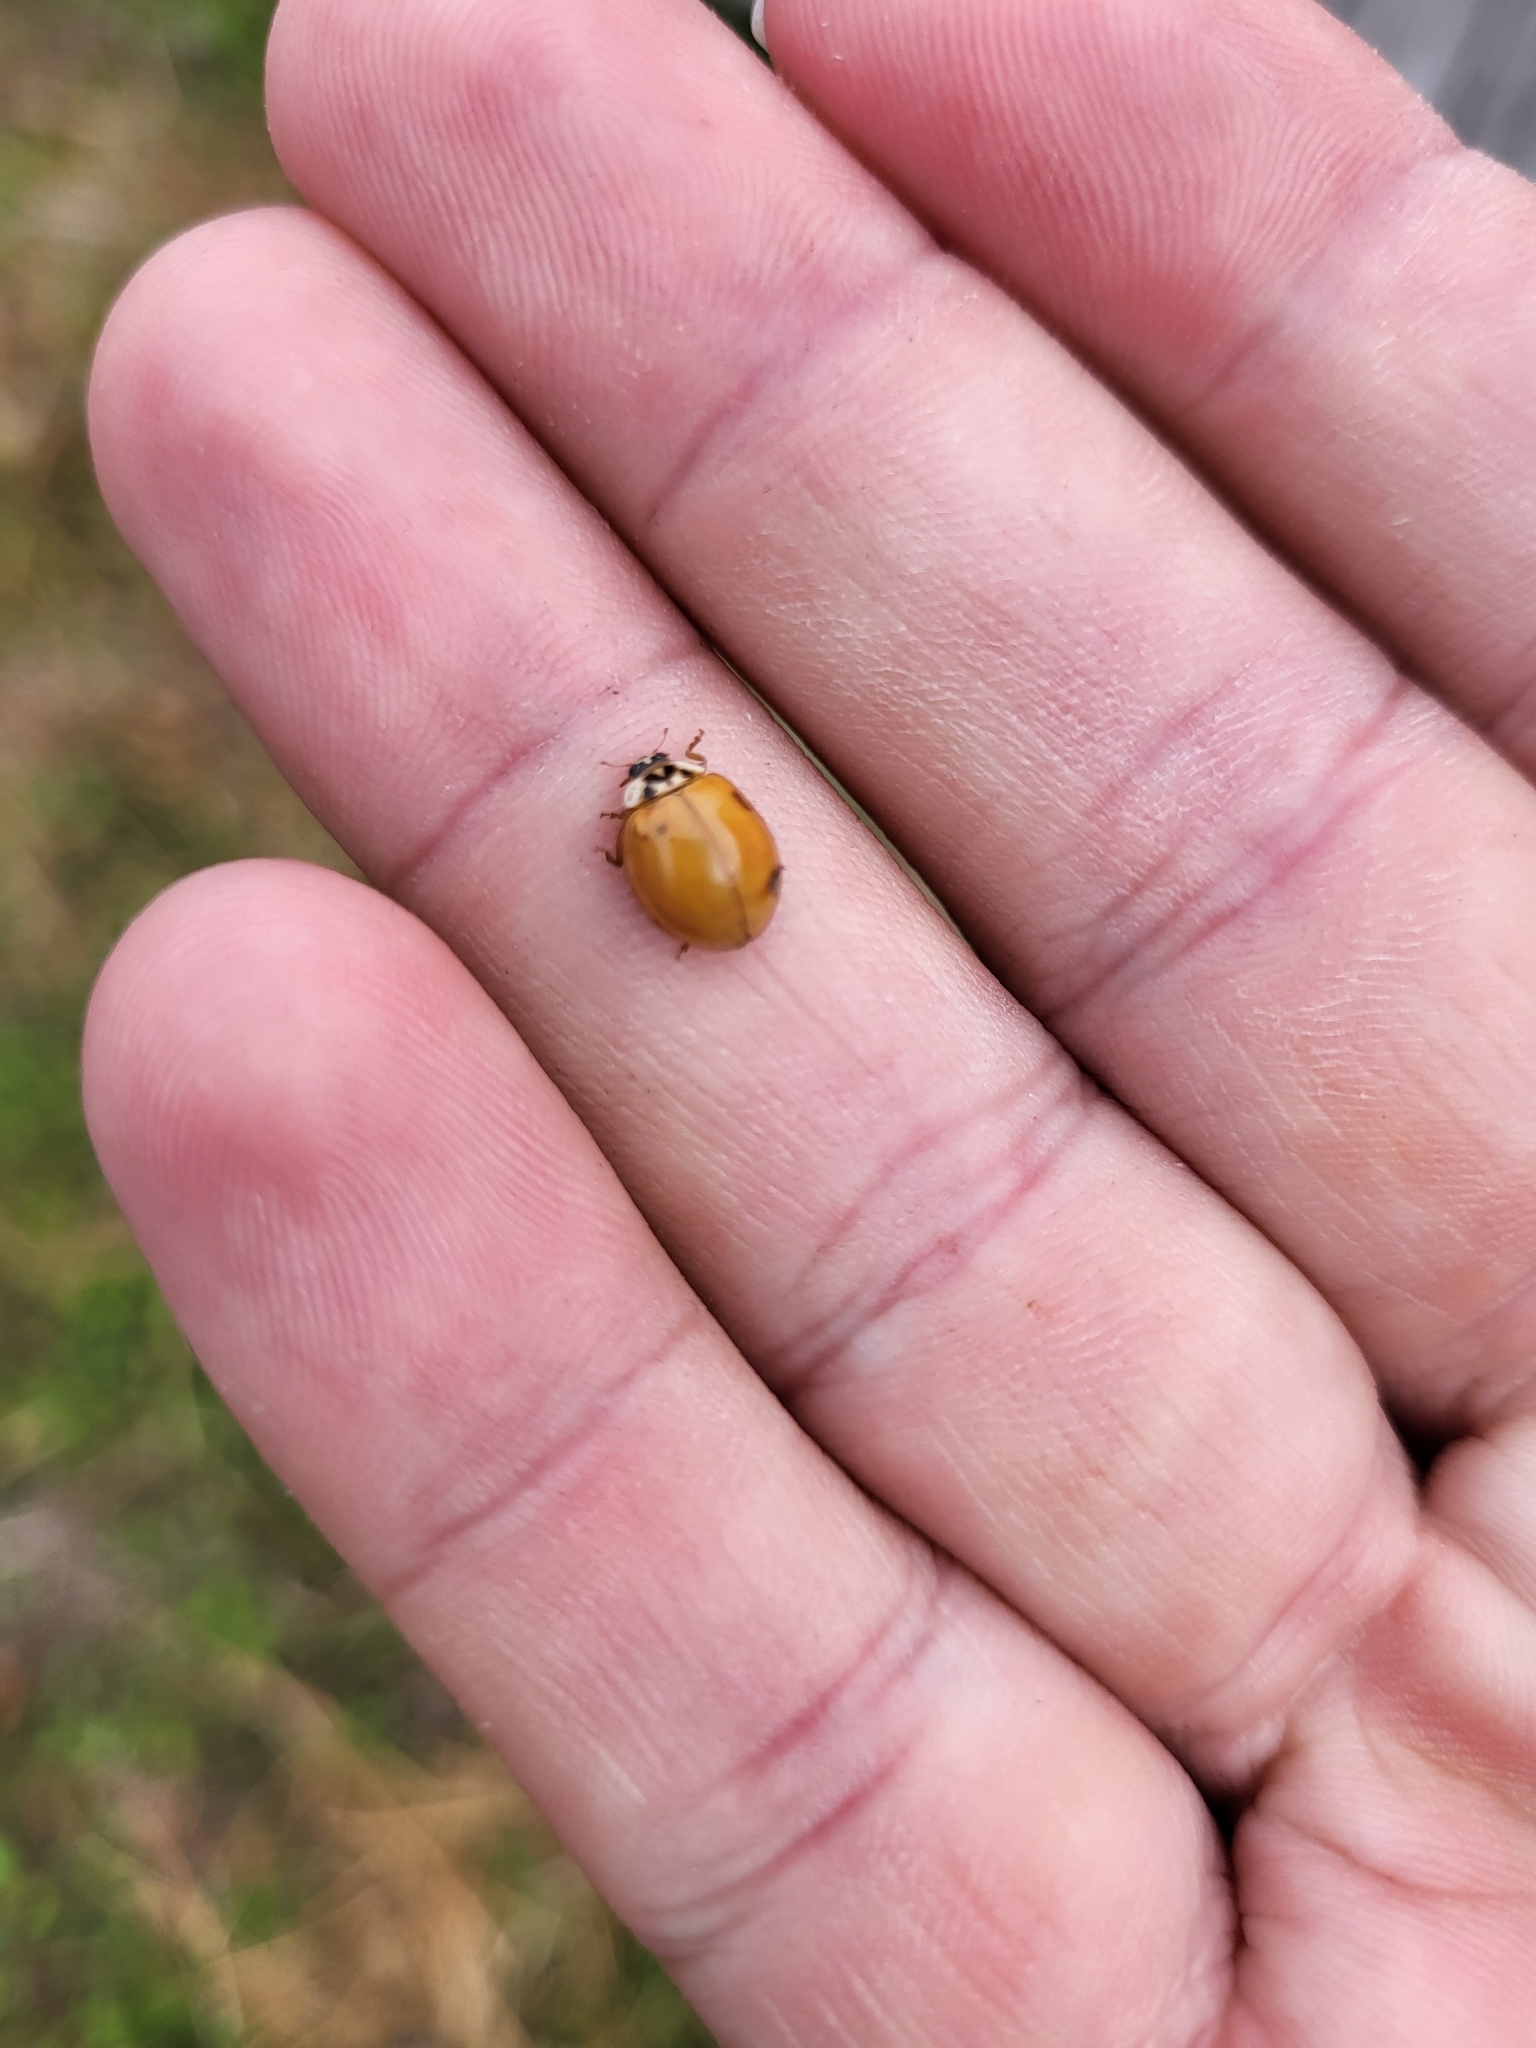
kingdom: Animalia
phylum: Arthropoda
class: Insecta
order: Coleoptera
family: Coccinellidae
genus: Harmonia
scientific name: Harmonia axyridis
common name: Harlequin ladybird
